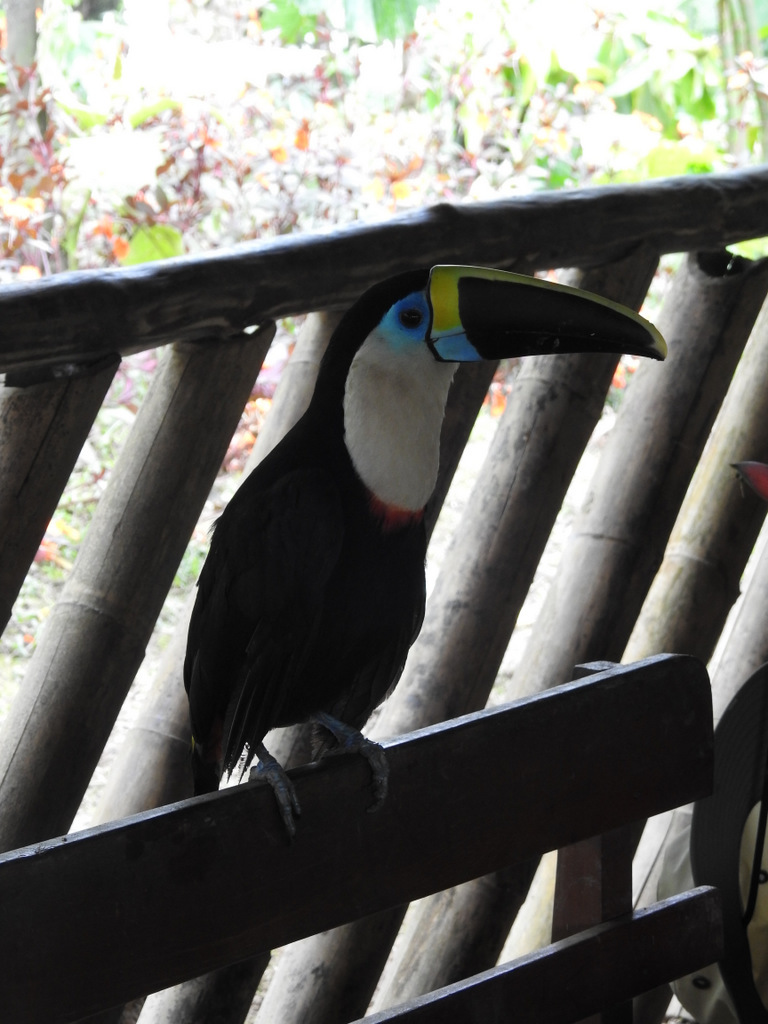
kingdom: Animalia
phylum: Chordata
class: Aves
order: Piciformes
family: Ramphastidae
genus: Ramphastos
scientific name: Ramphastos tucanus
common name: White-throated toucan
